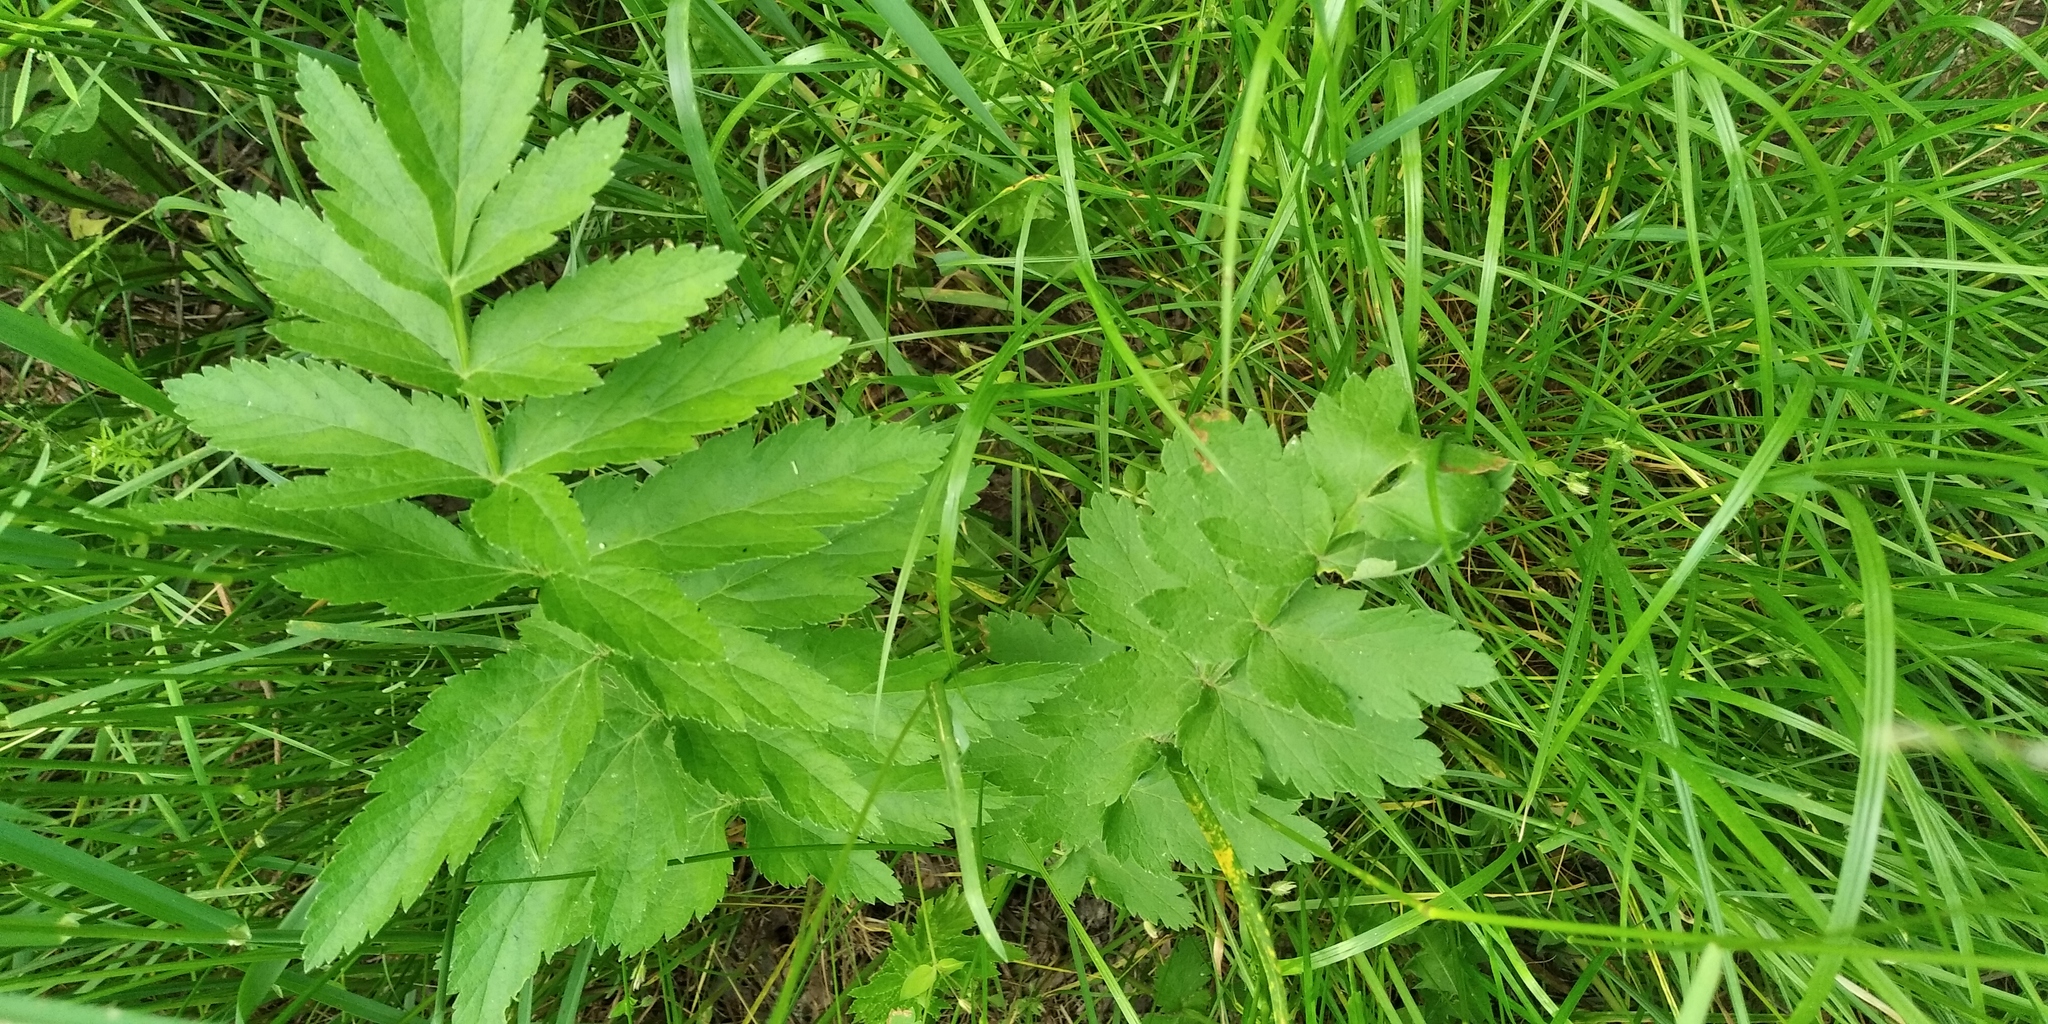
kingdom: Plantae
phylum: Tracheophyta
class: Magnoliopsida
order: Apiales
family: Apiaceae
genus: Pastinaca
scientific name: Pastinaca sativa
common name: Wild parsnip
